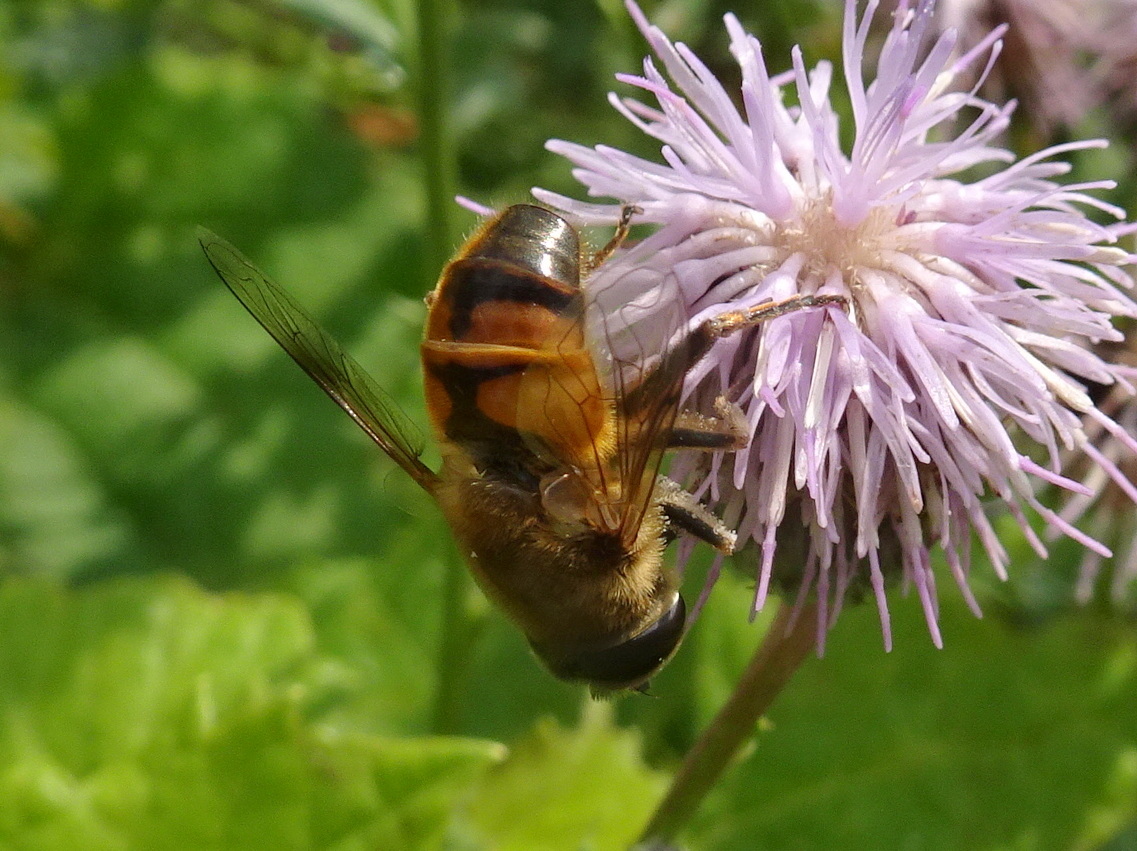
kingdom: Animalia
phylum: Arthropoda
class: Insecta
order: Diptera
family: Syrphidae
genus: Eristalis
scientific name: Eristalis tenax
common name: Drone fly
